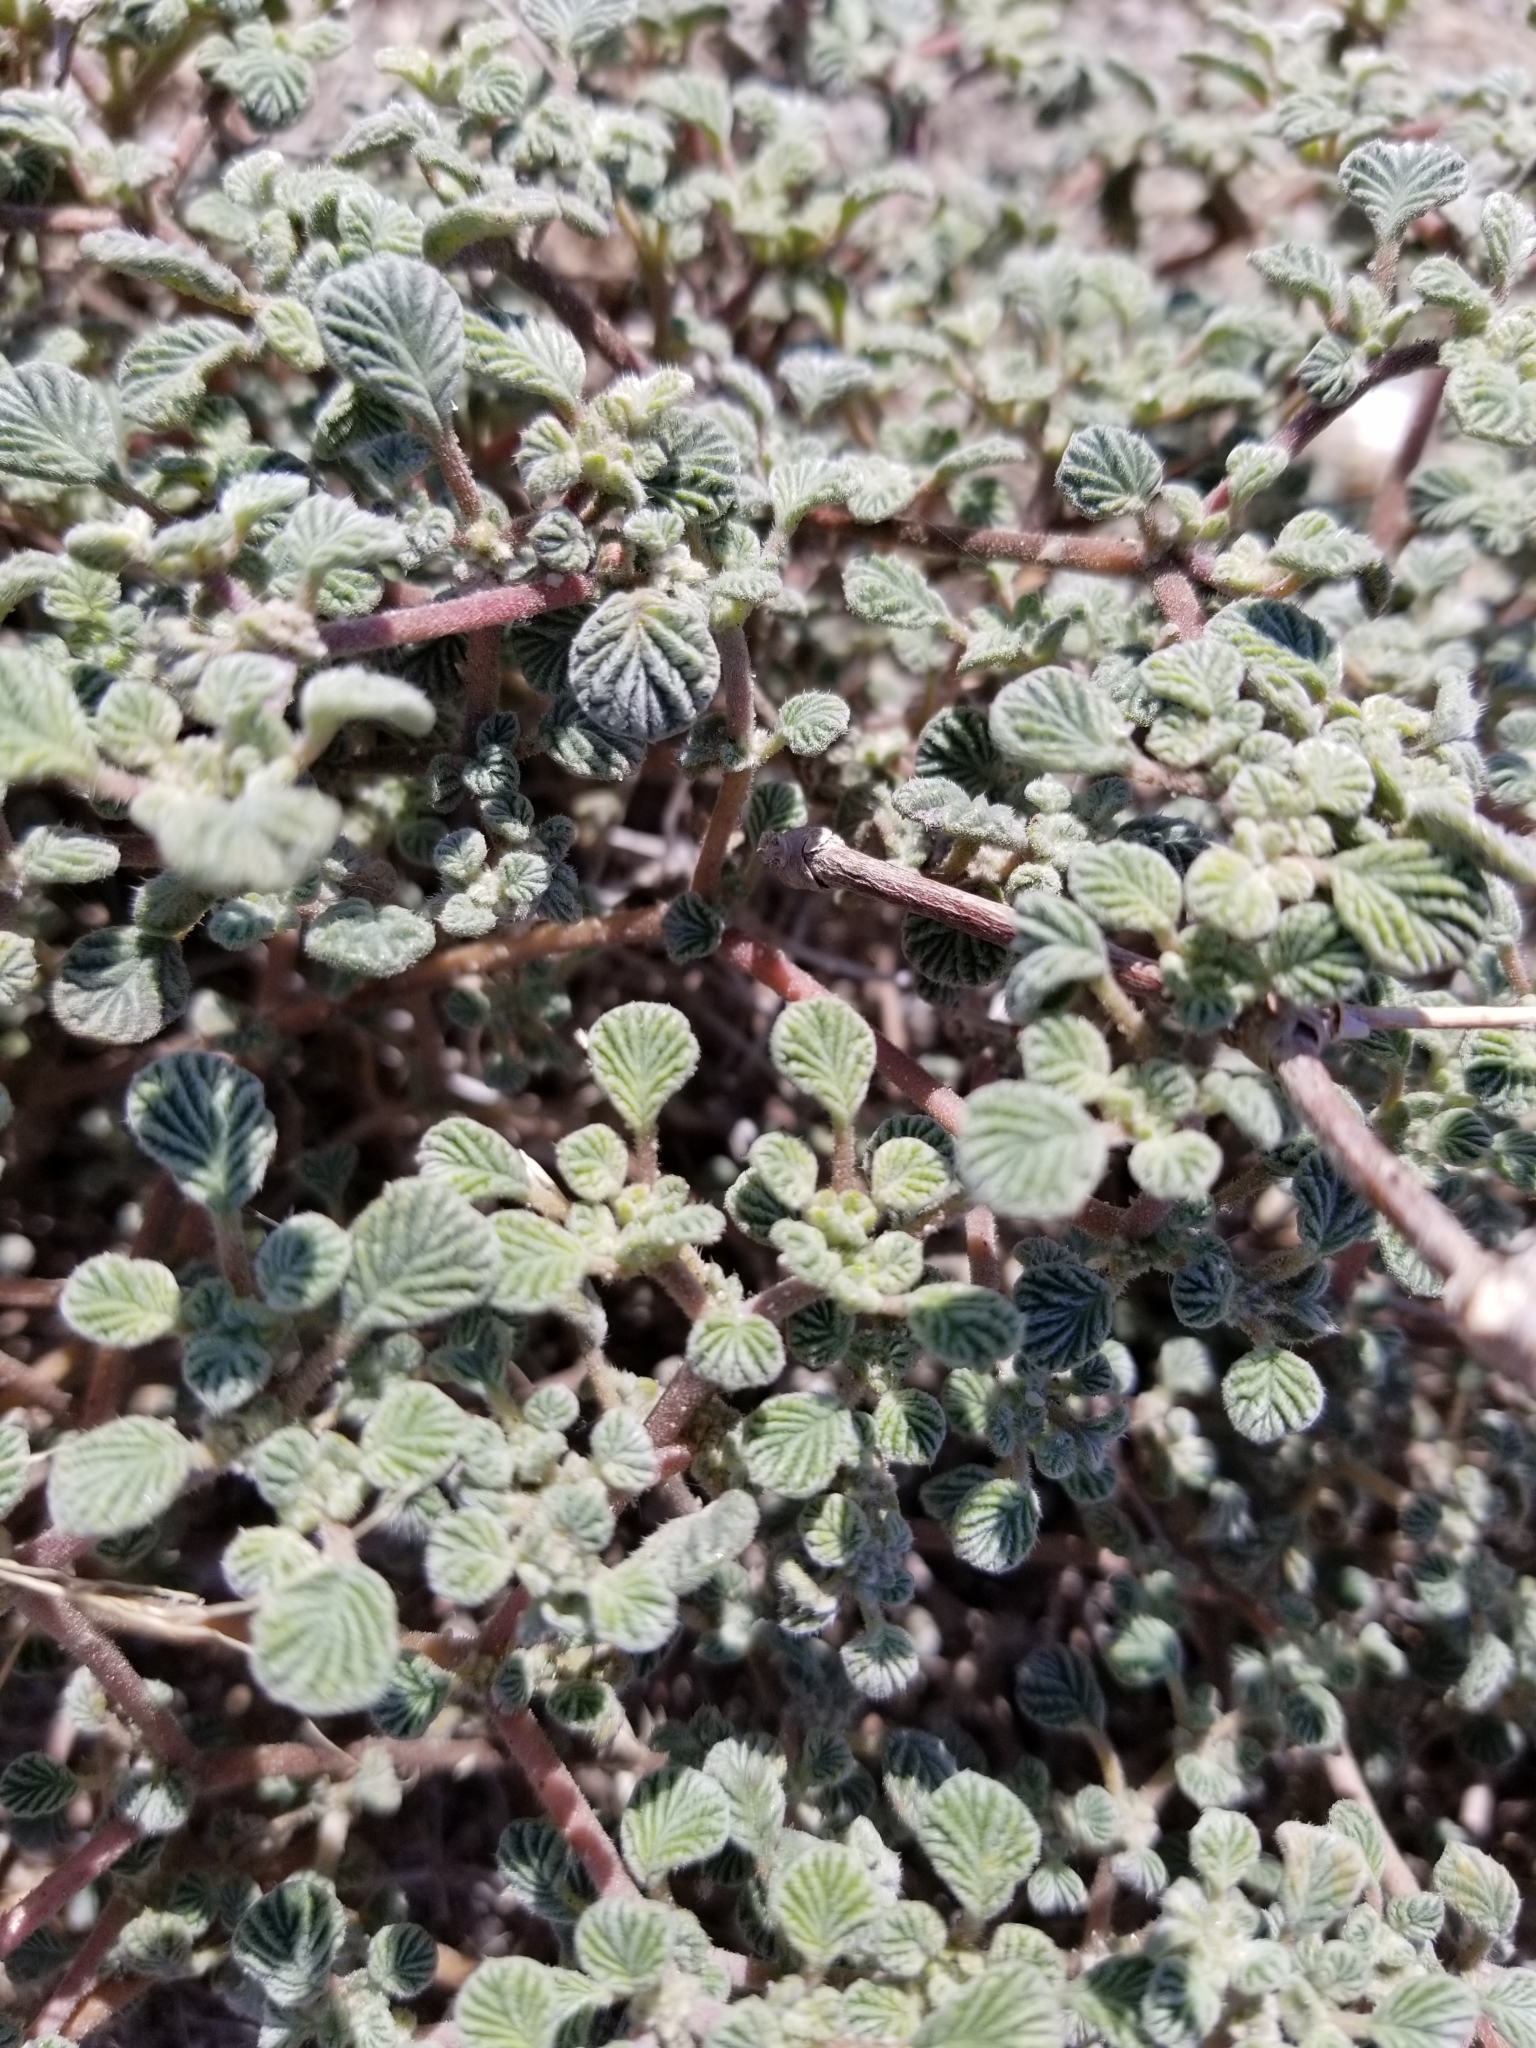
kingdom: Plantae
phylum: Tracheophyta
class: Magnoliopsida
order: Boraginales
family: Ehretiaceae
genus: Tiquilia
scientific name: Tiquilia plicata
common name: Fan-leaf tiquilia
